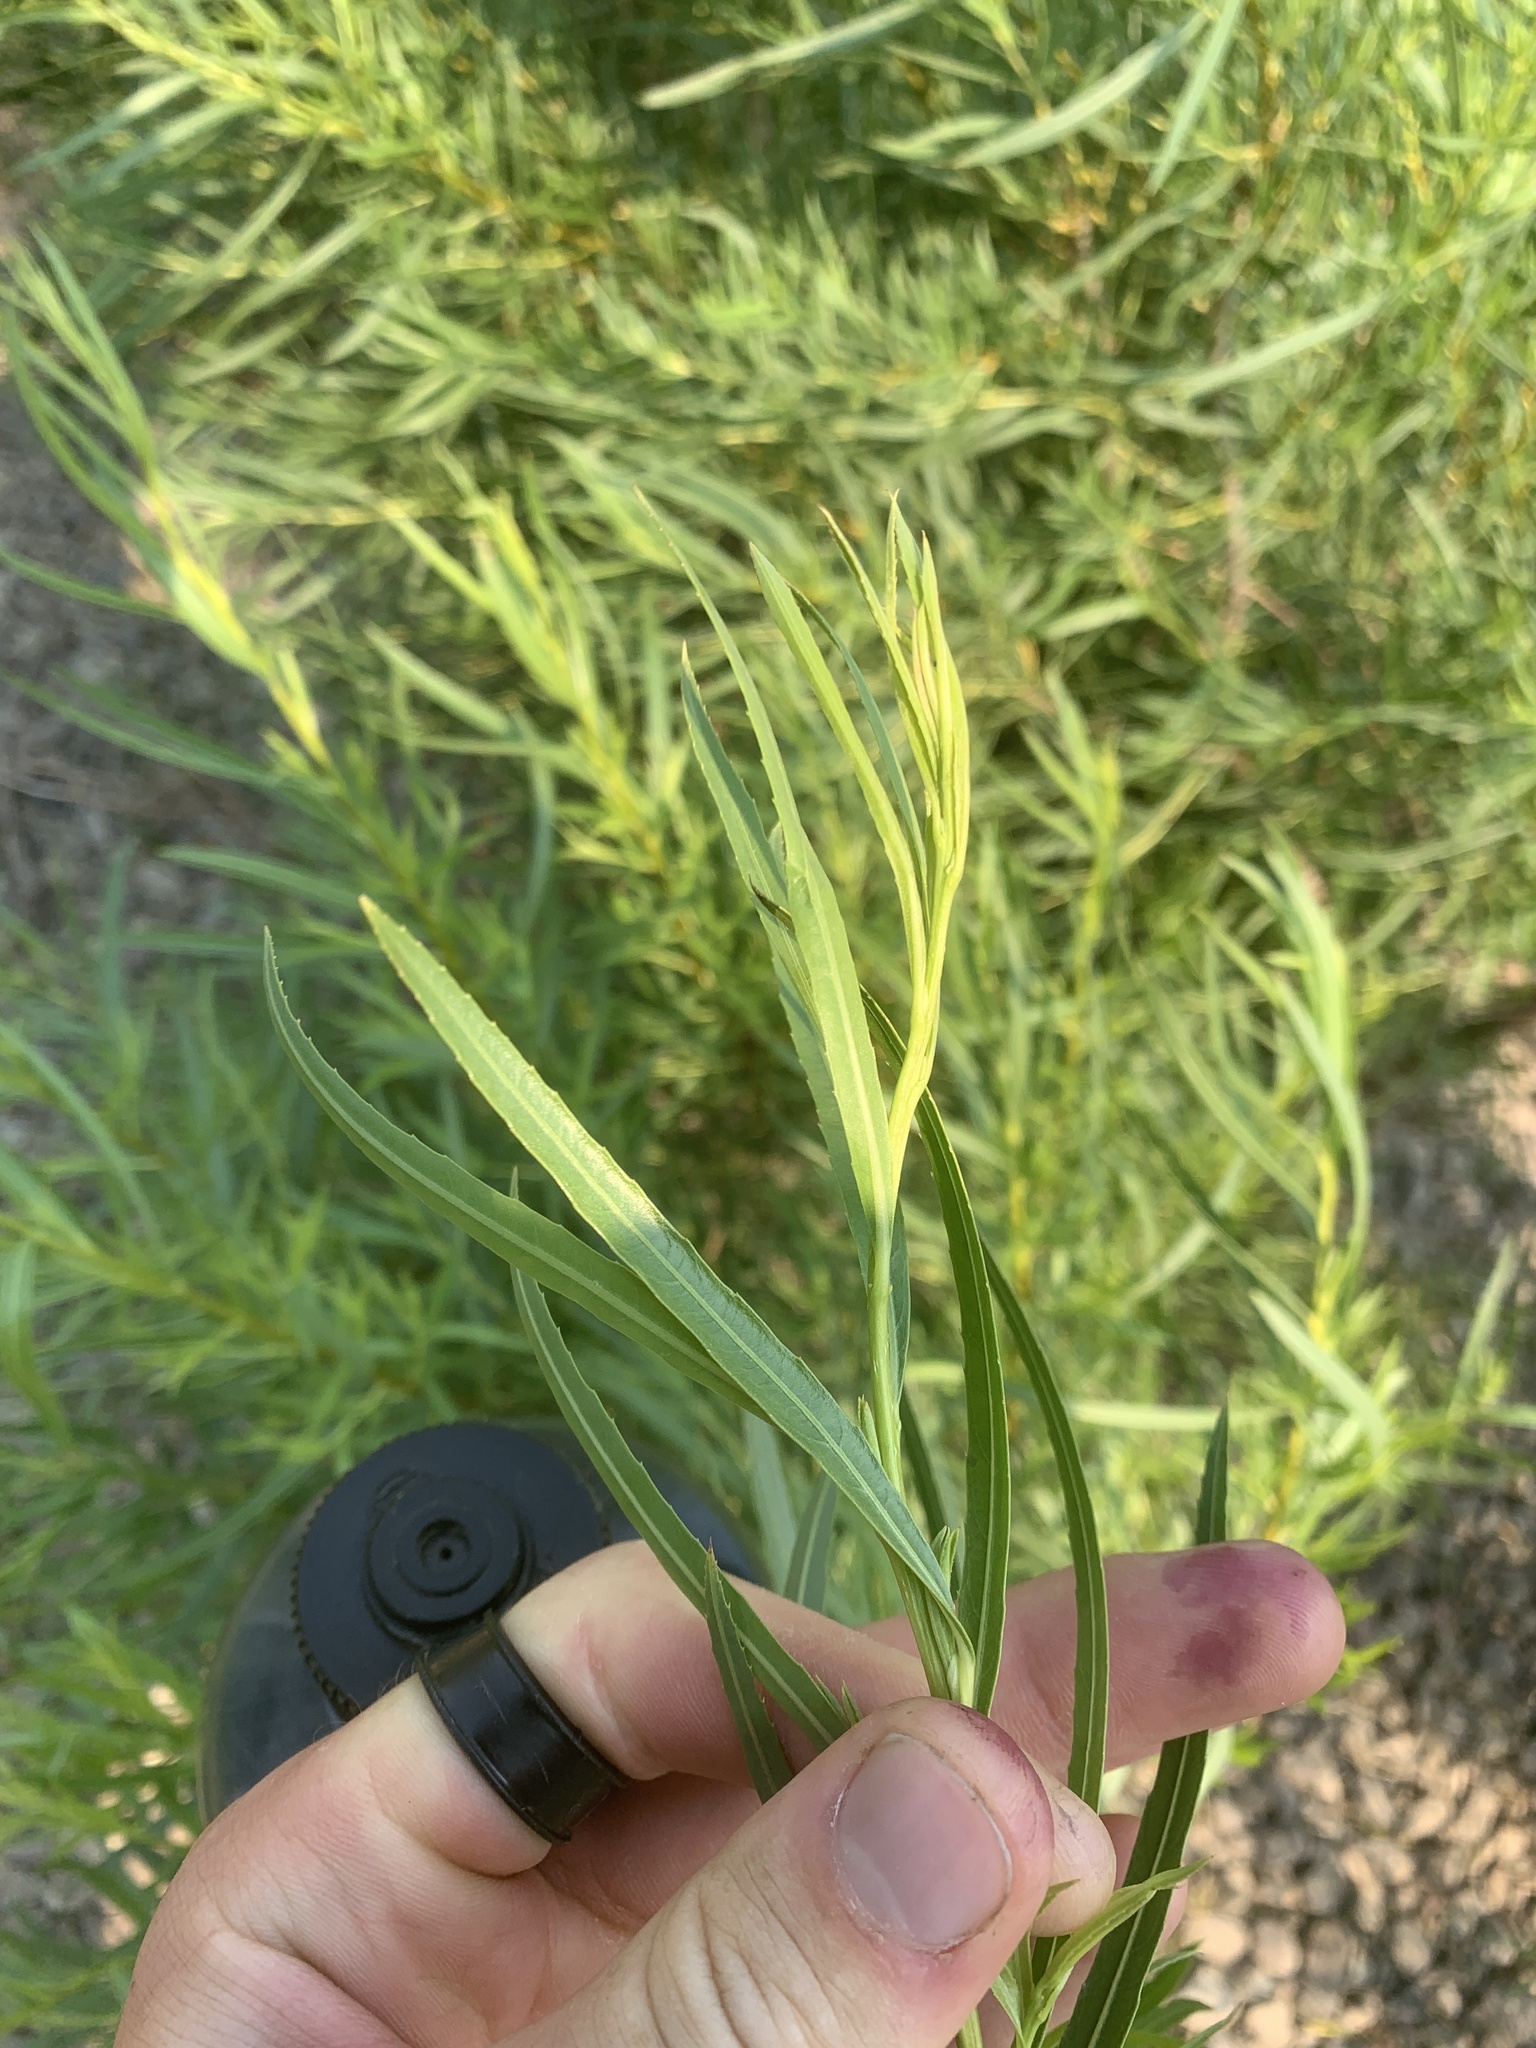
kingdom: Plantae
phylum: Tracheophyta
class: Magnoliopsida
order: Malpighiales
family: Salicaceae
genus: Salix
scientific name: Salix interior
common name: Sandbar willow
